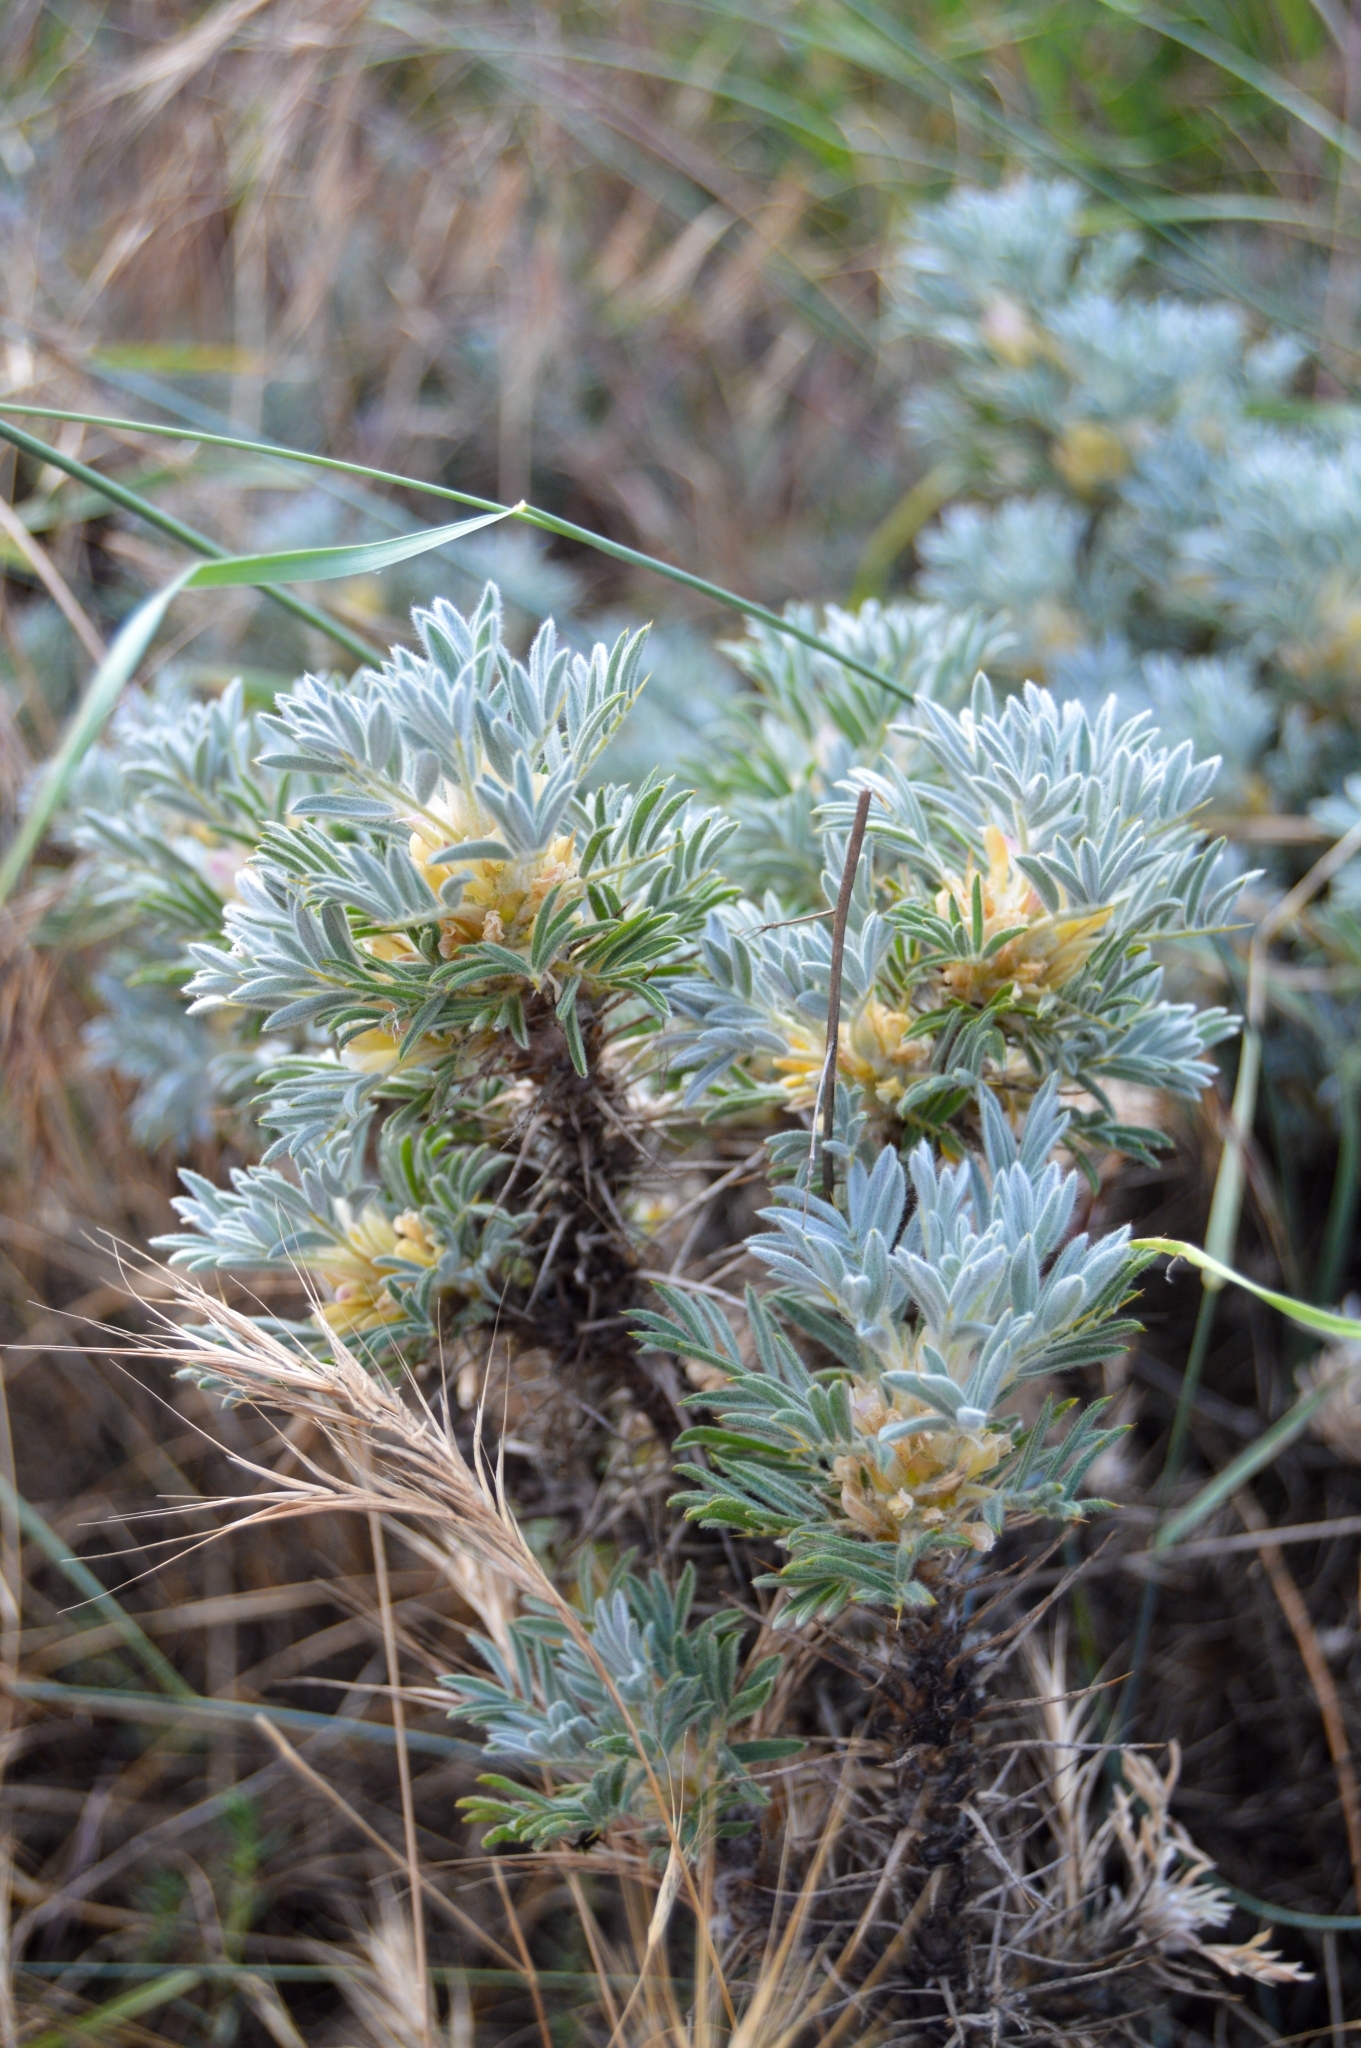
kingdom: Plantae
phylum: Tracheophyta
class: Magnoliopsida
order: Fabales
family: Fabaceae
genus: Astragalus
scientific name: Astragalus arnacantha
